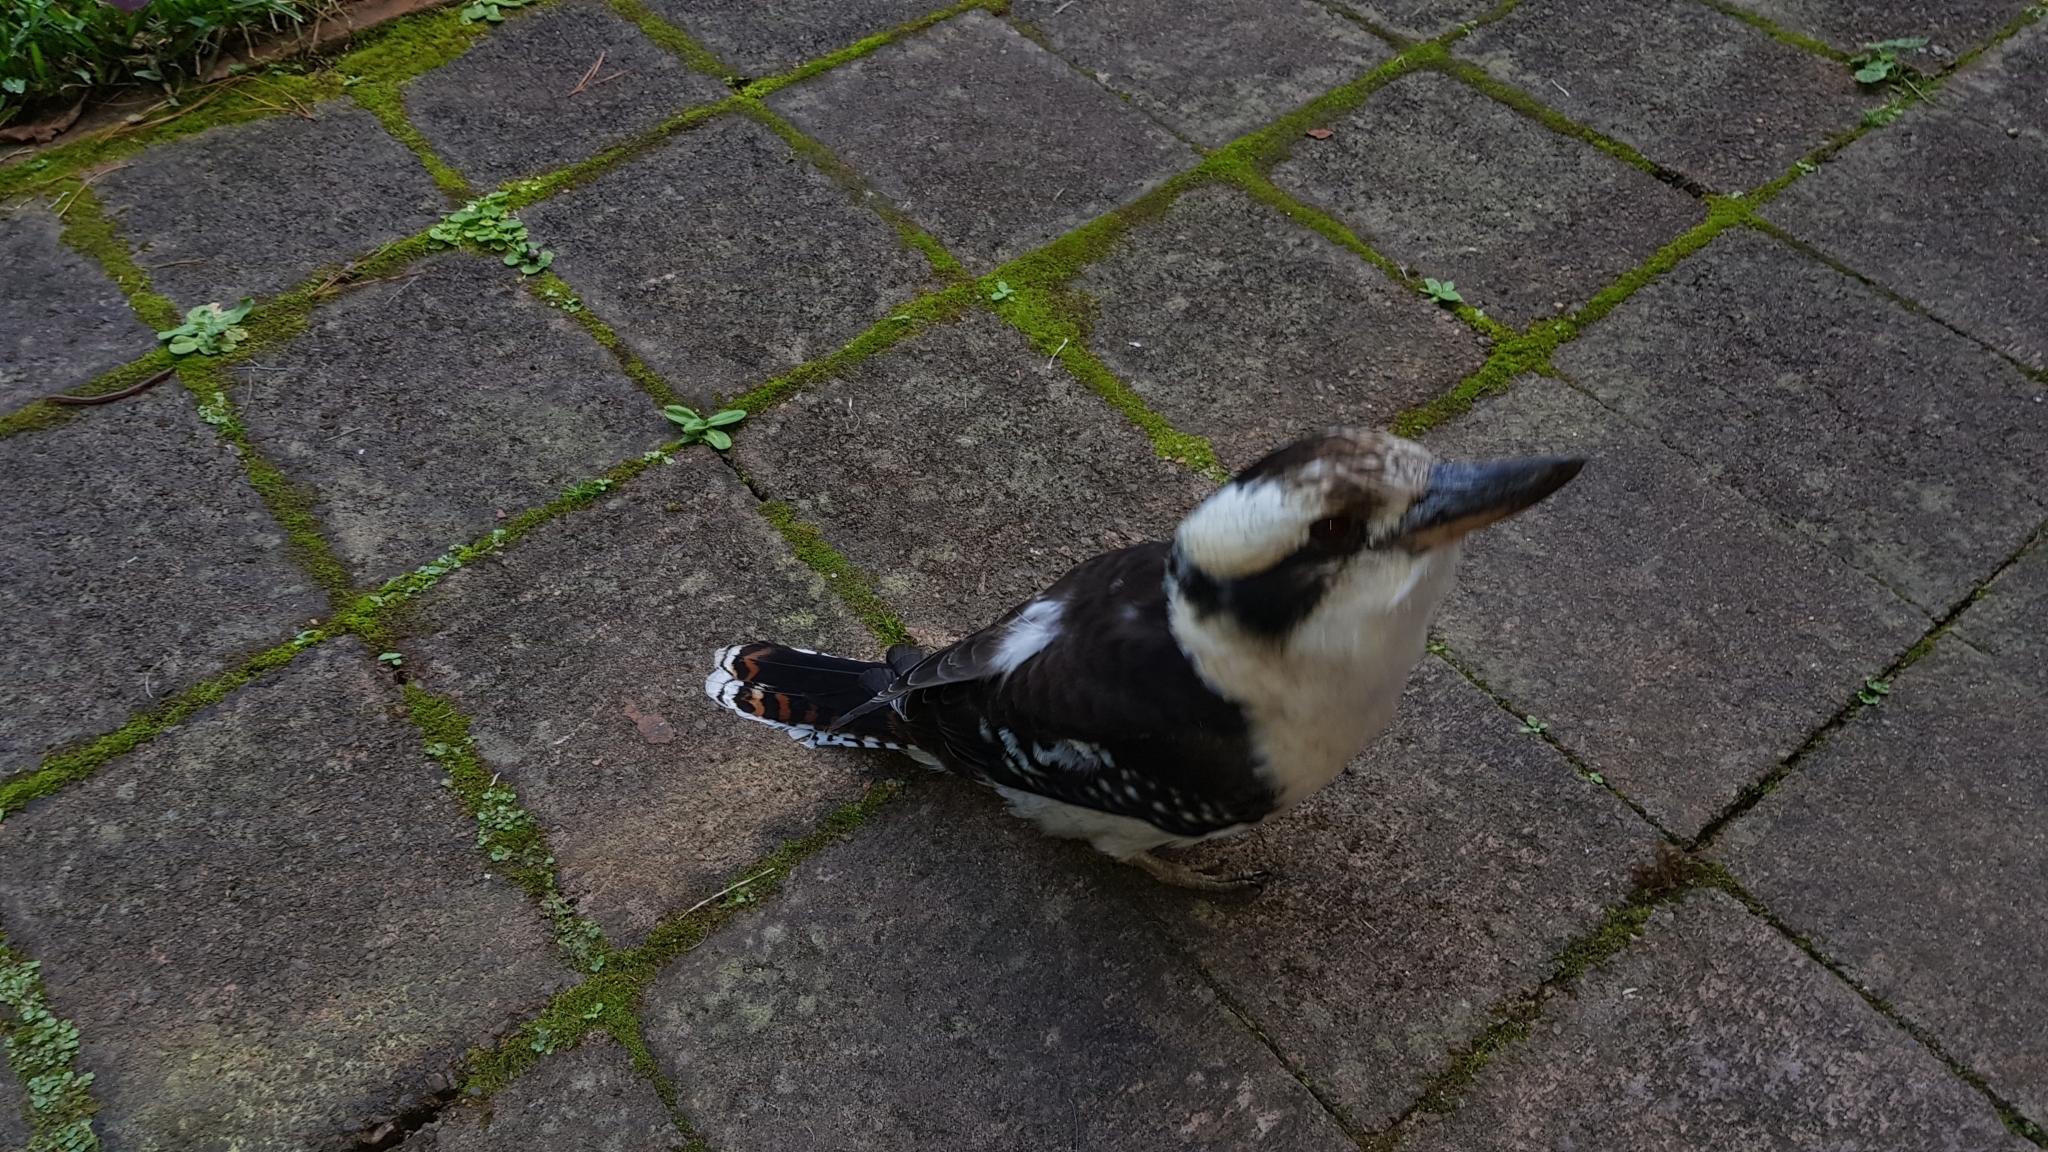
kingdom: Animalia
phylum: Chordata
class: Aves
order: Coraciiformes
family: Alcedinidae
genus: Dacelo
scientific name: Dacelo novaeguineae
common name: Laughing kookaburra
